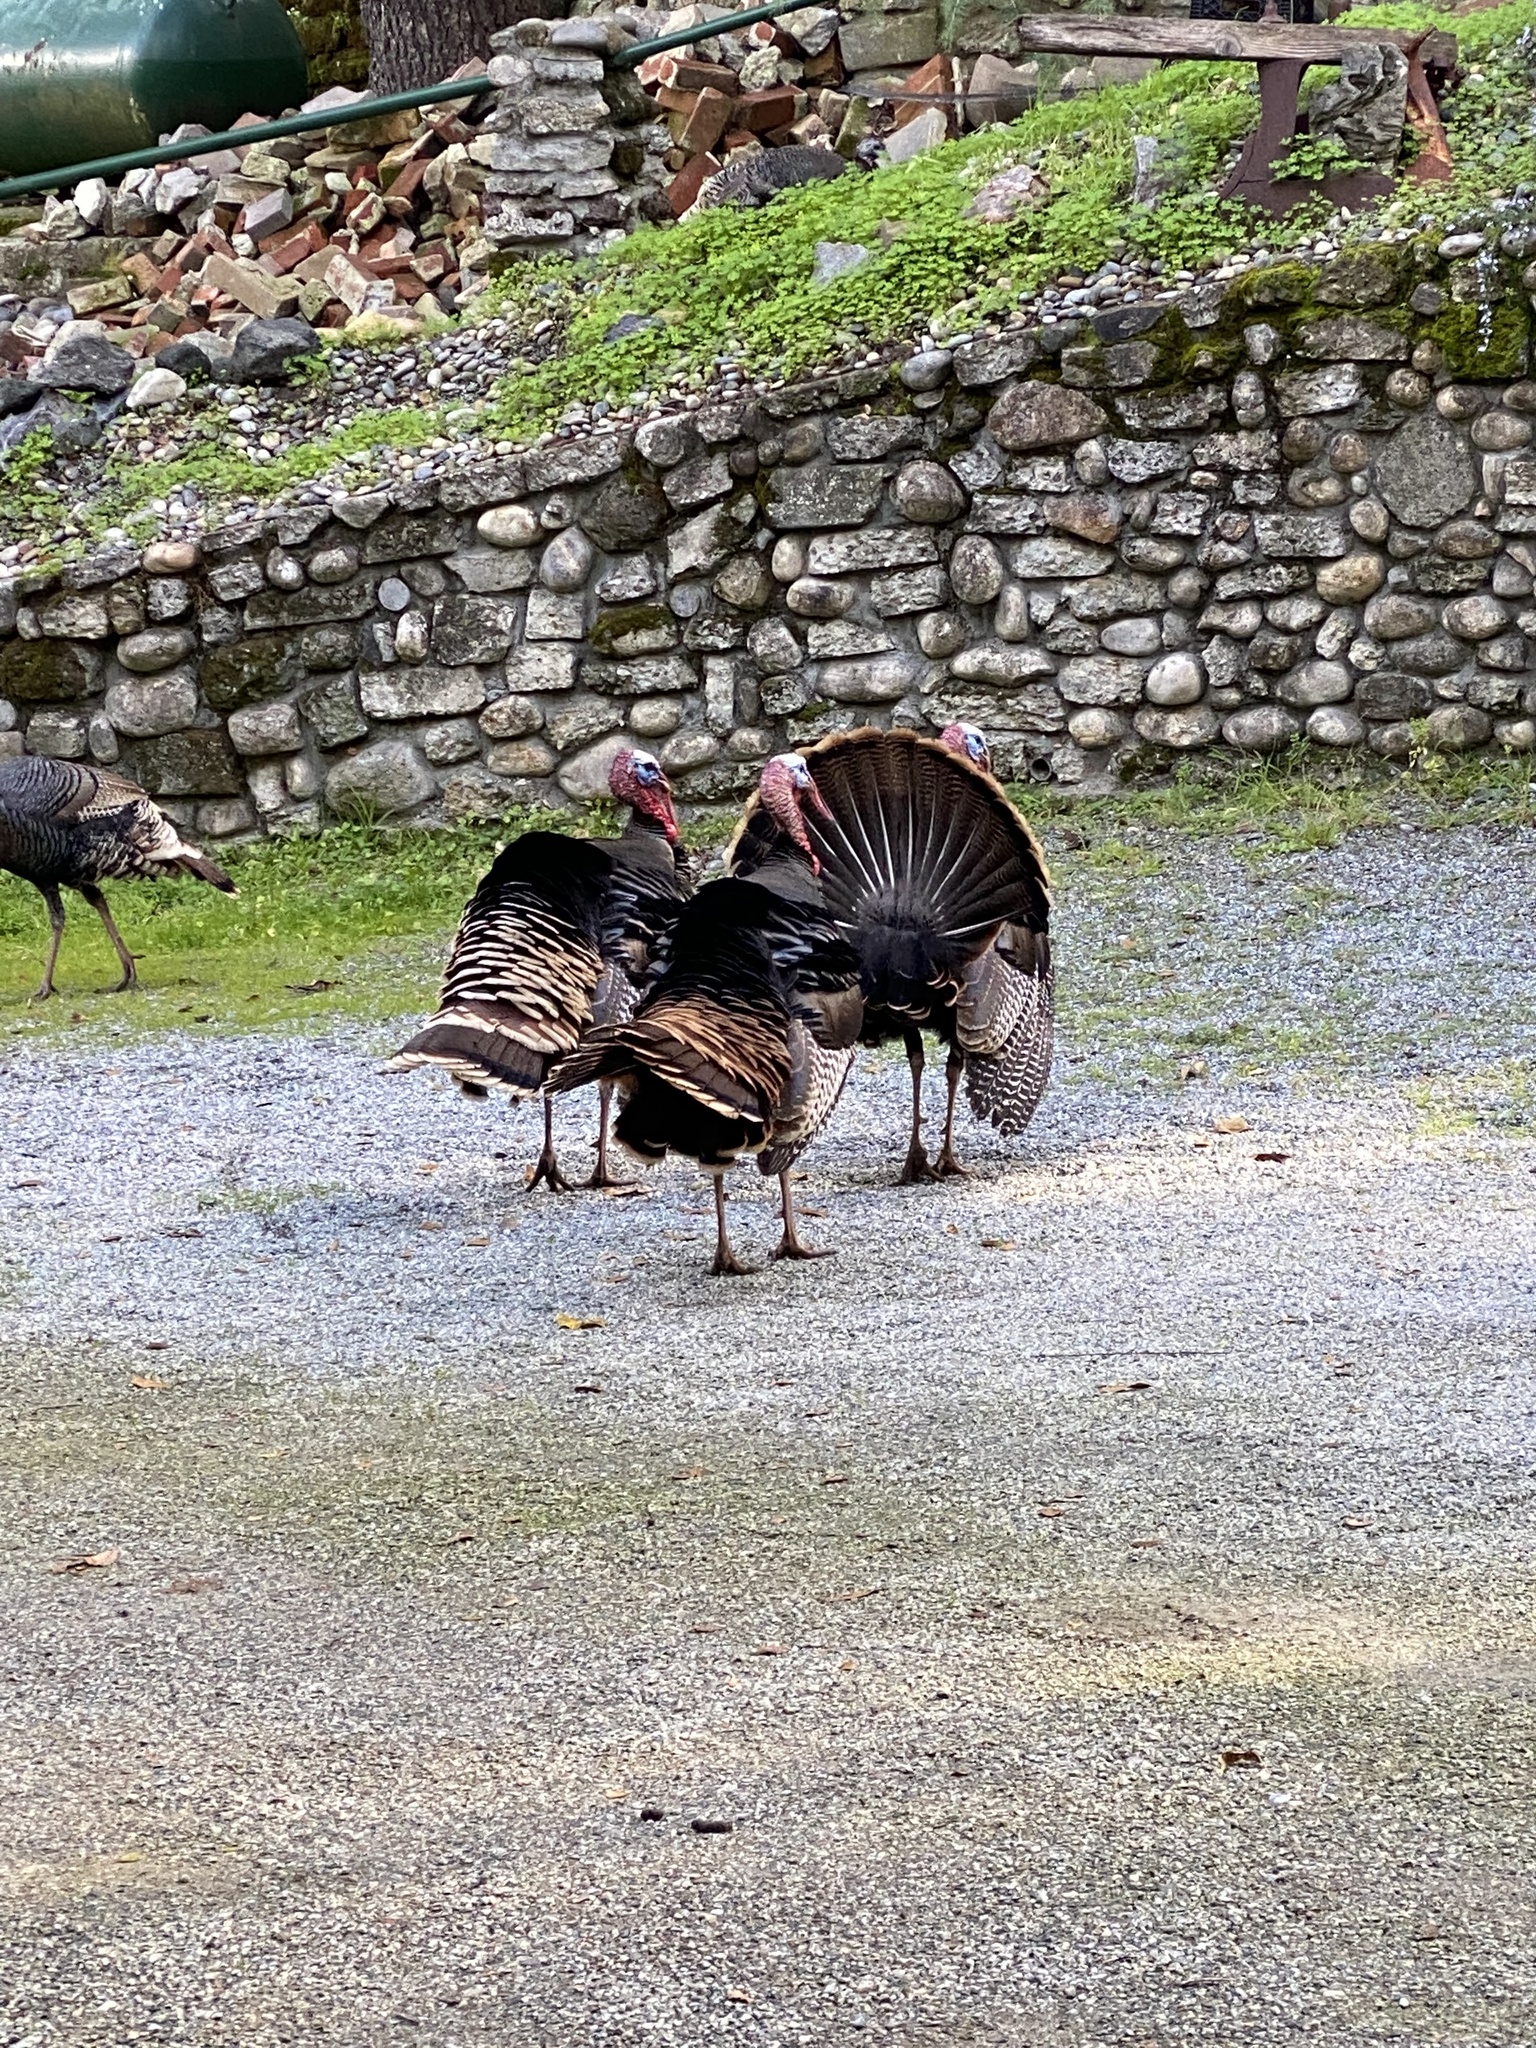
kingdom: Animalia
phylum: Chordata
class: Aves
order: Galliformes
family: Phasianidae
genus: Meleagris
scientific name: Meleagris gallopavo
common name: Wild turkey
